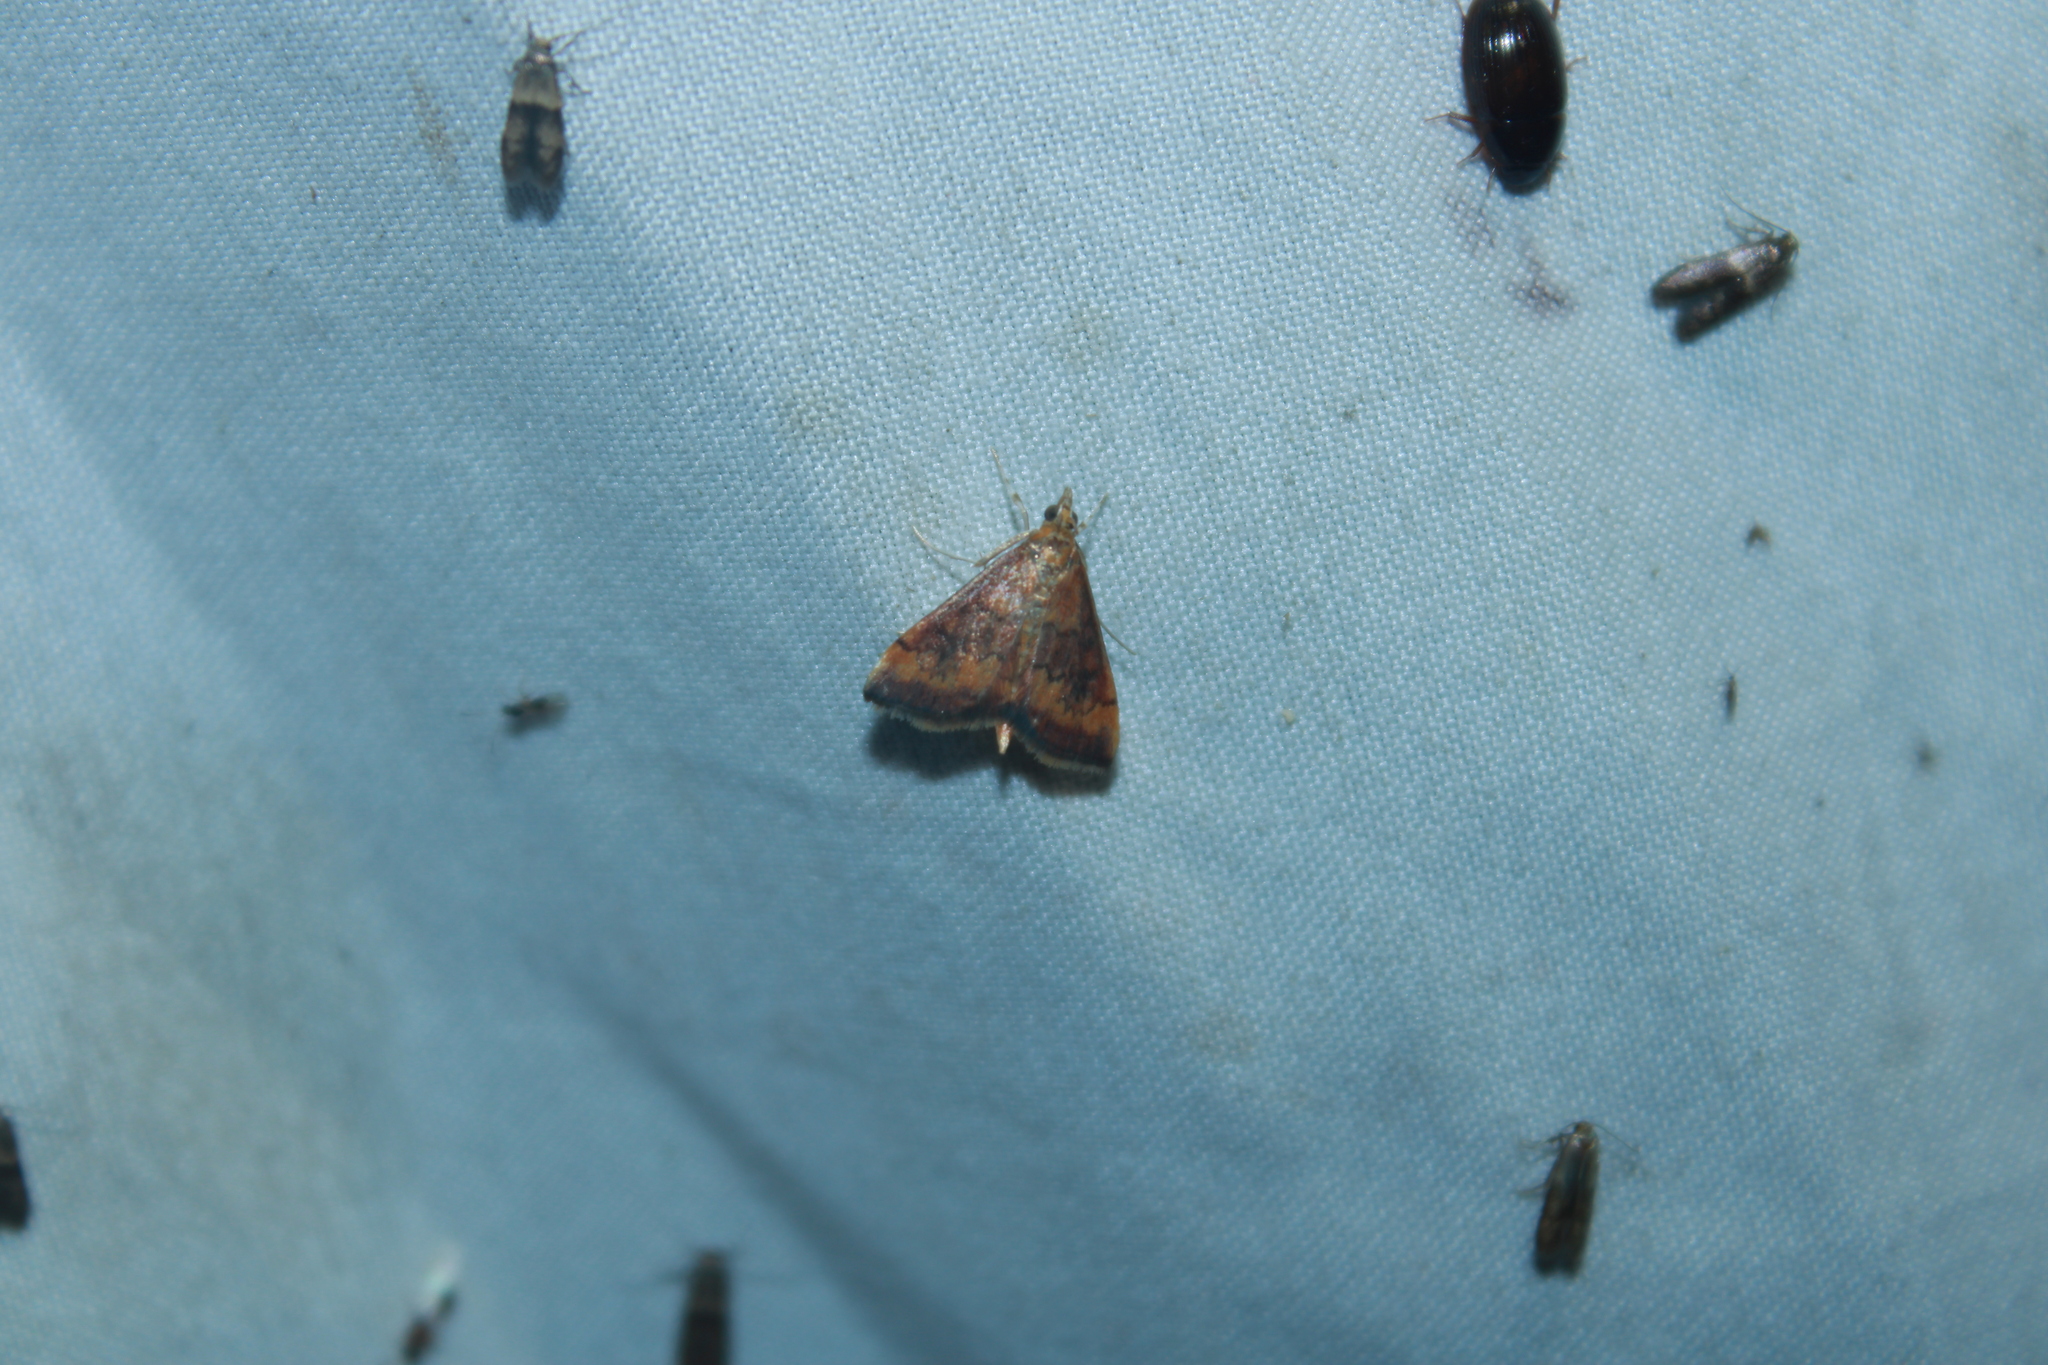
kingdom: Animalia
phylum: Arthropoda
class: Insecta
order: Lepidoptera
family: Crambidae
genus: Pyrausta
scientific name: Pyrausta rubricalis
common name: Variable reddish pyrausta
